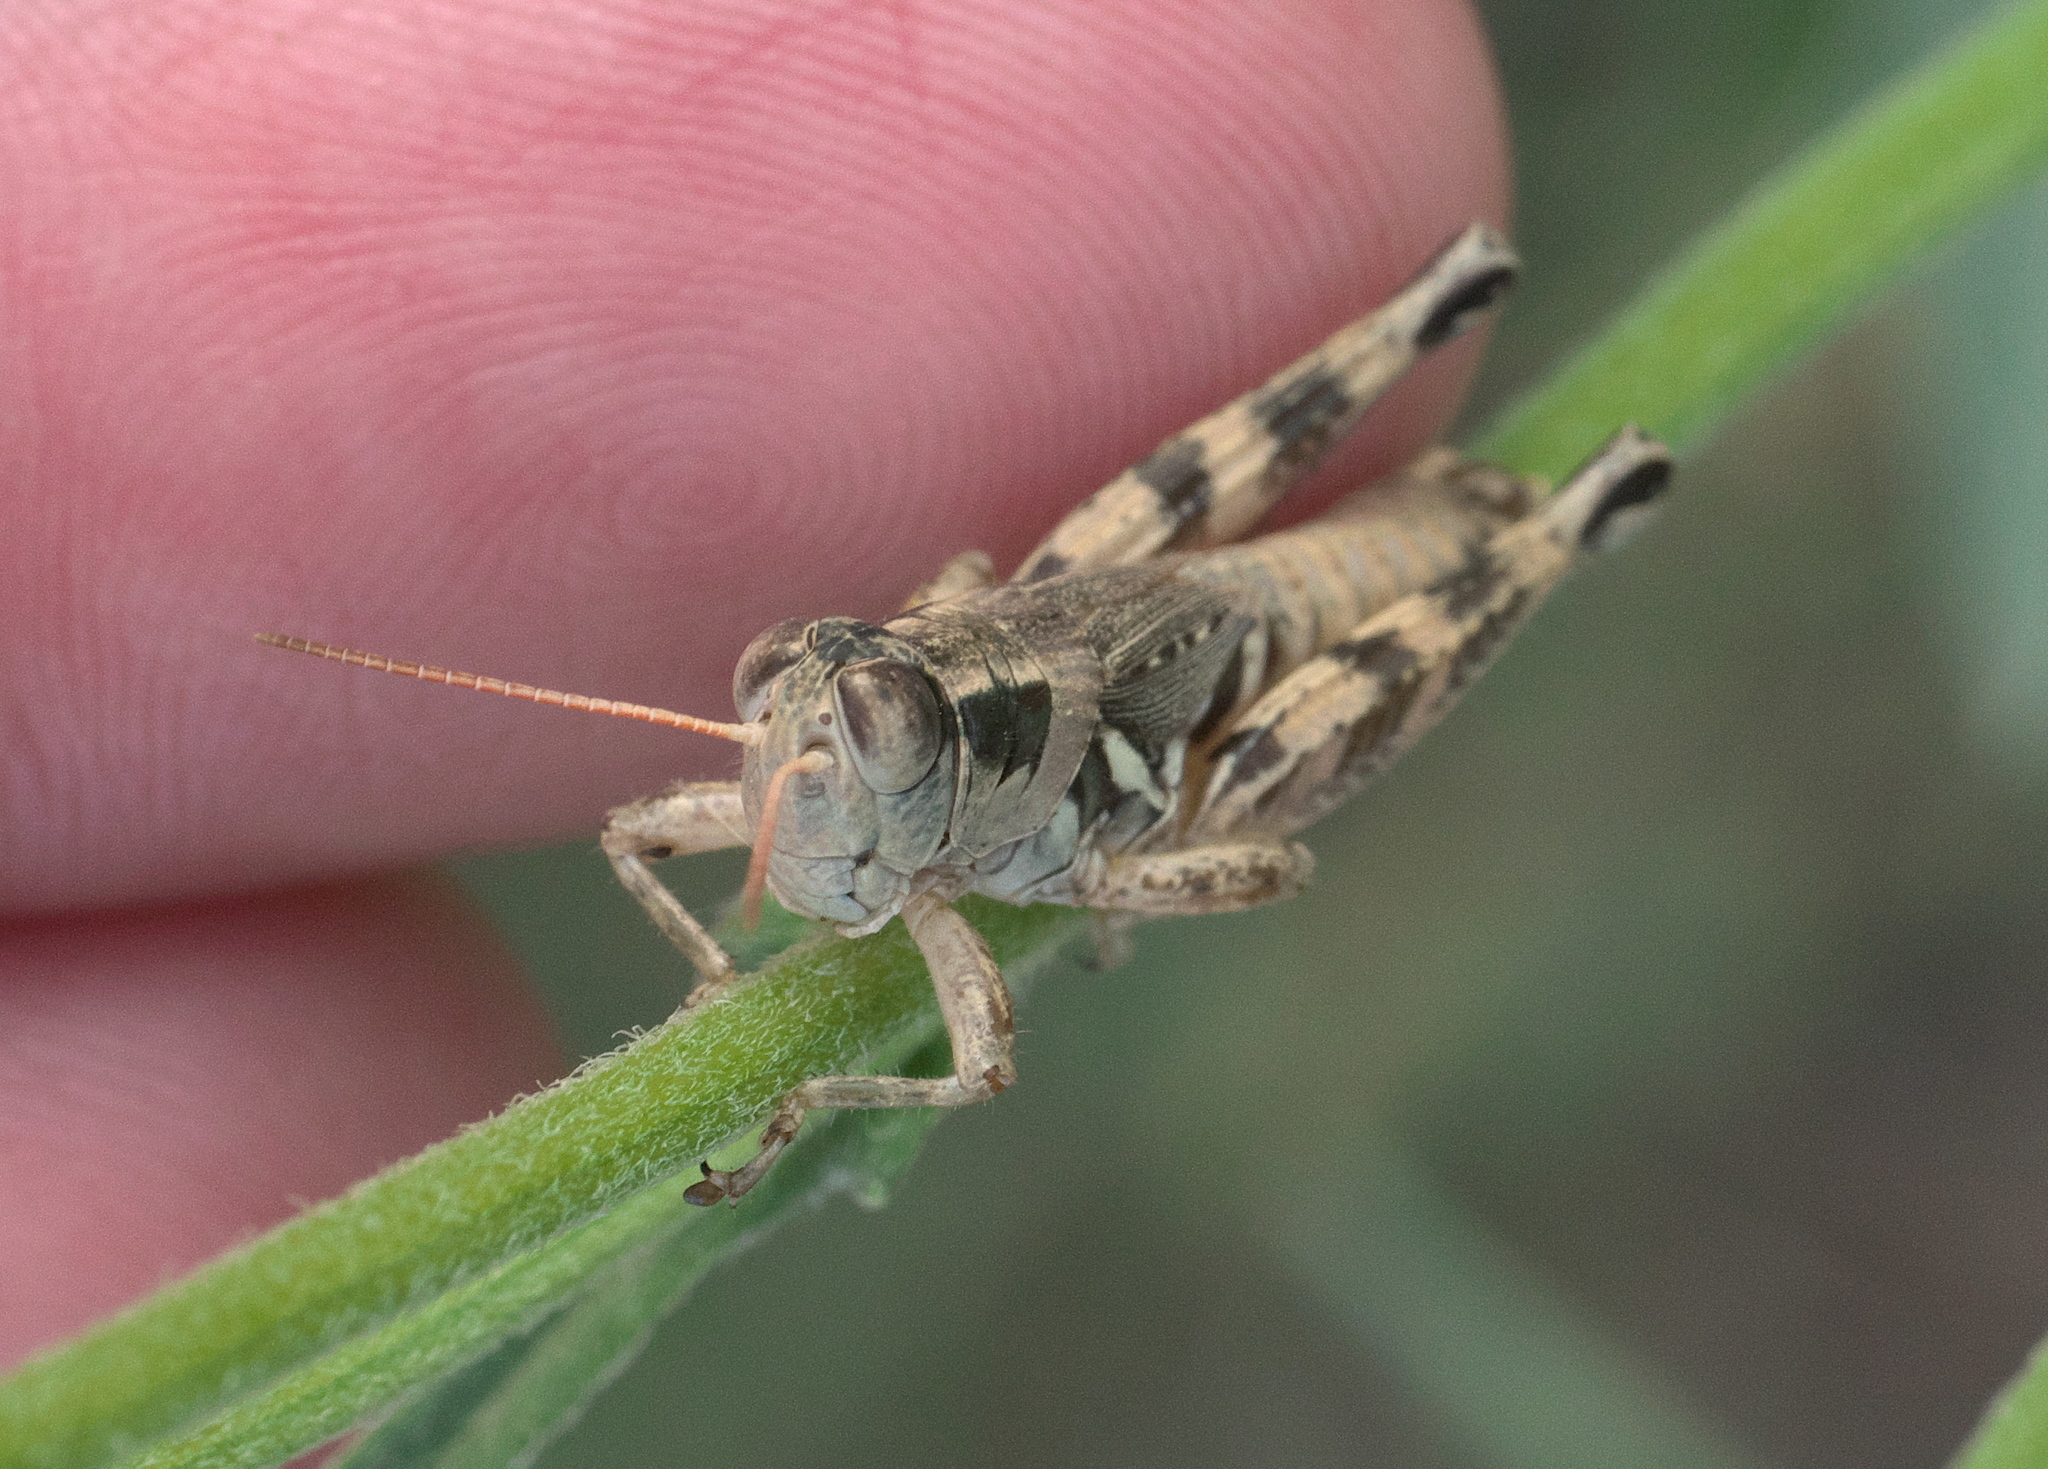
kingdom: Animalia
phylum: Arthropoda
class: Insecta
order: Orthoptera
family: Acrididae
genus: Melanoplus
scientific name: Melanoplus lakinus
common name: Lakin grasshopper
